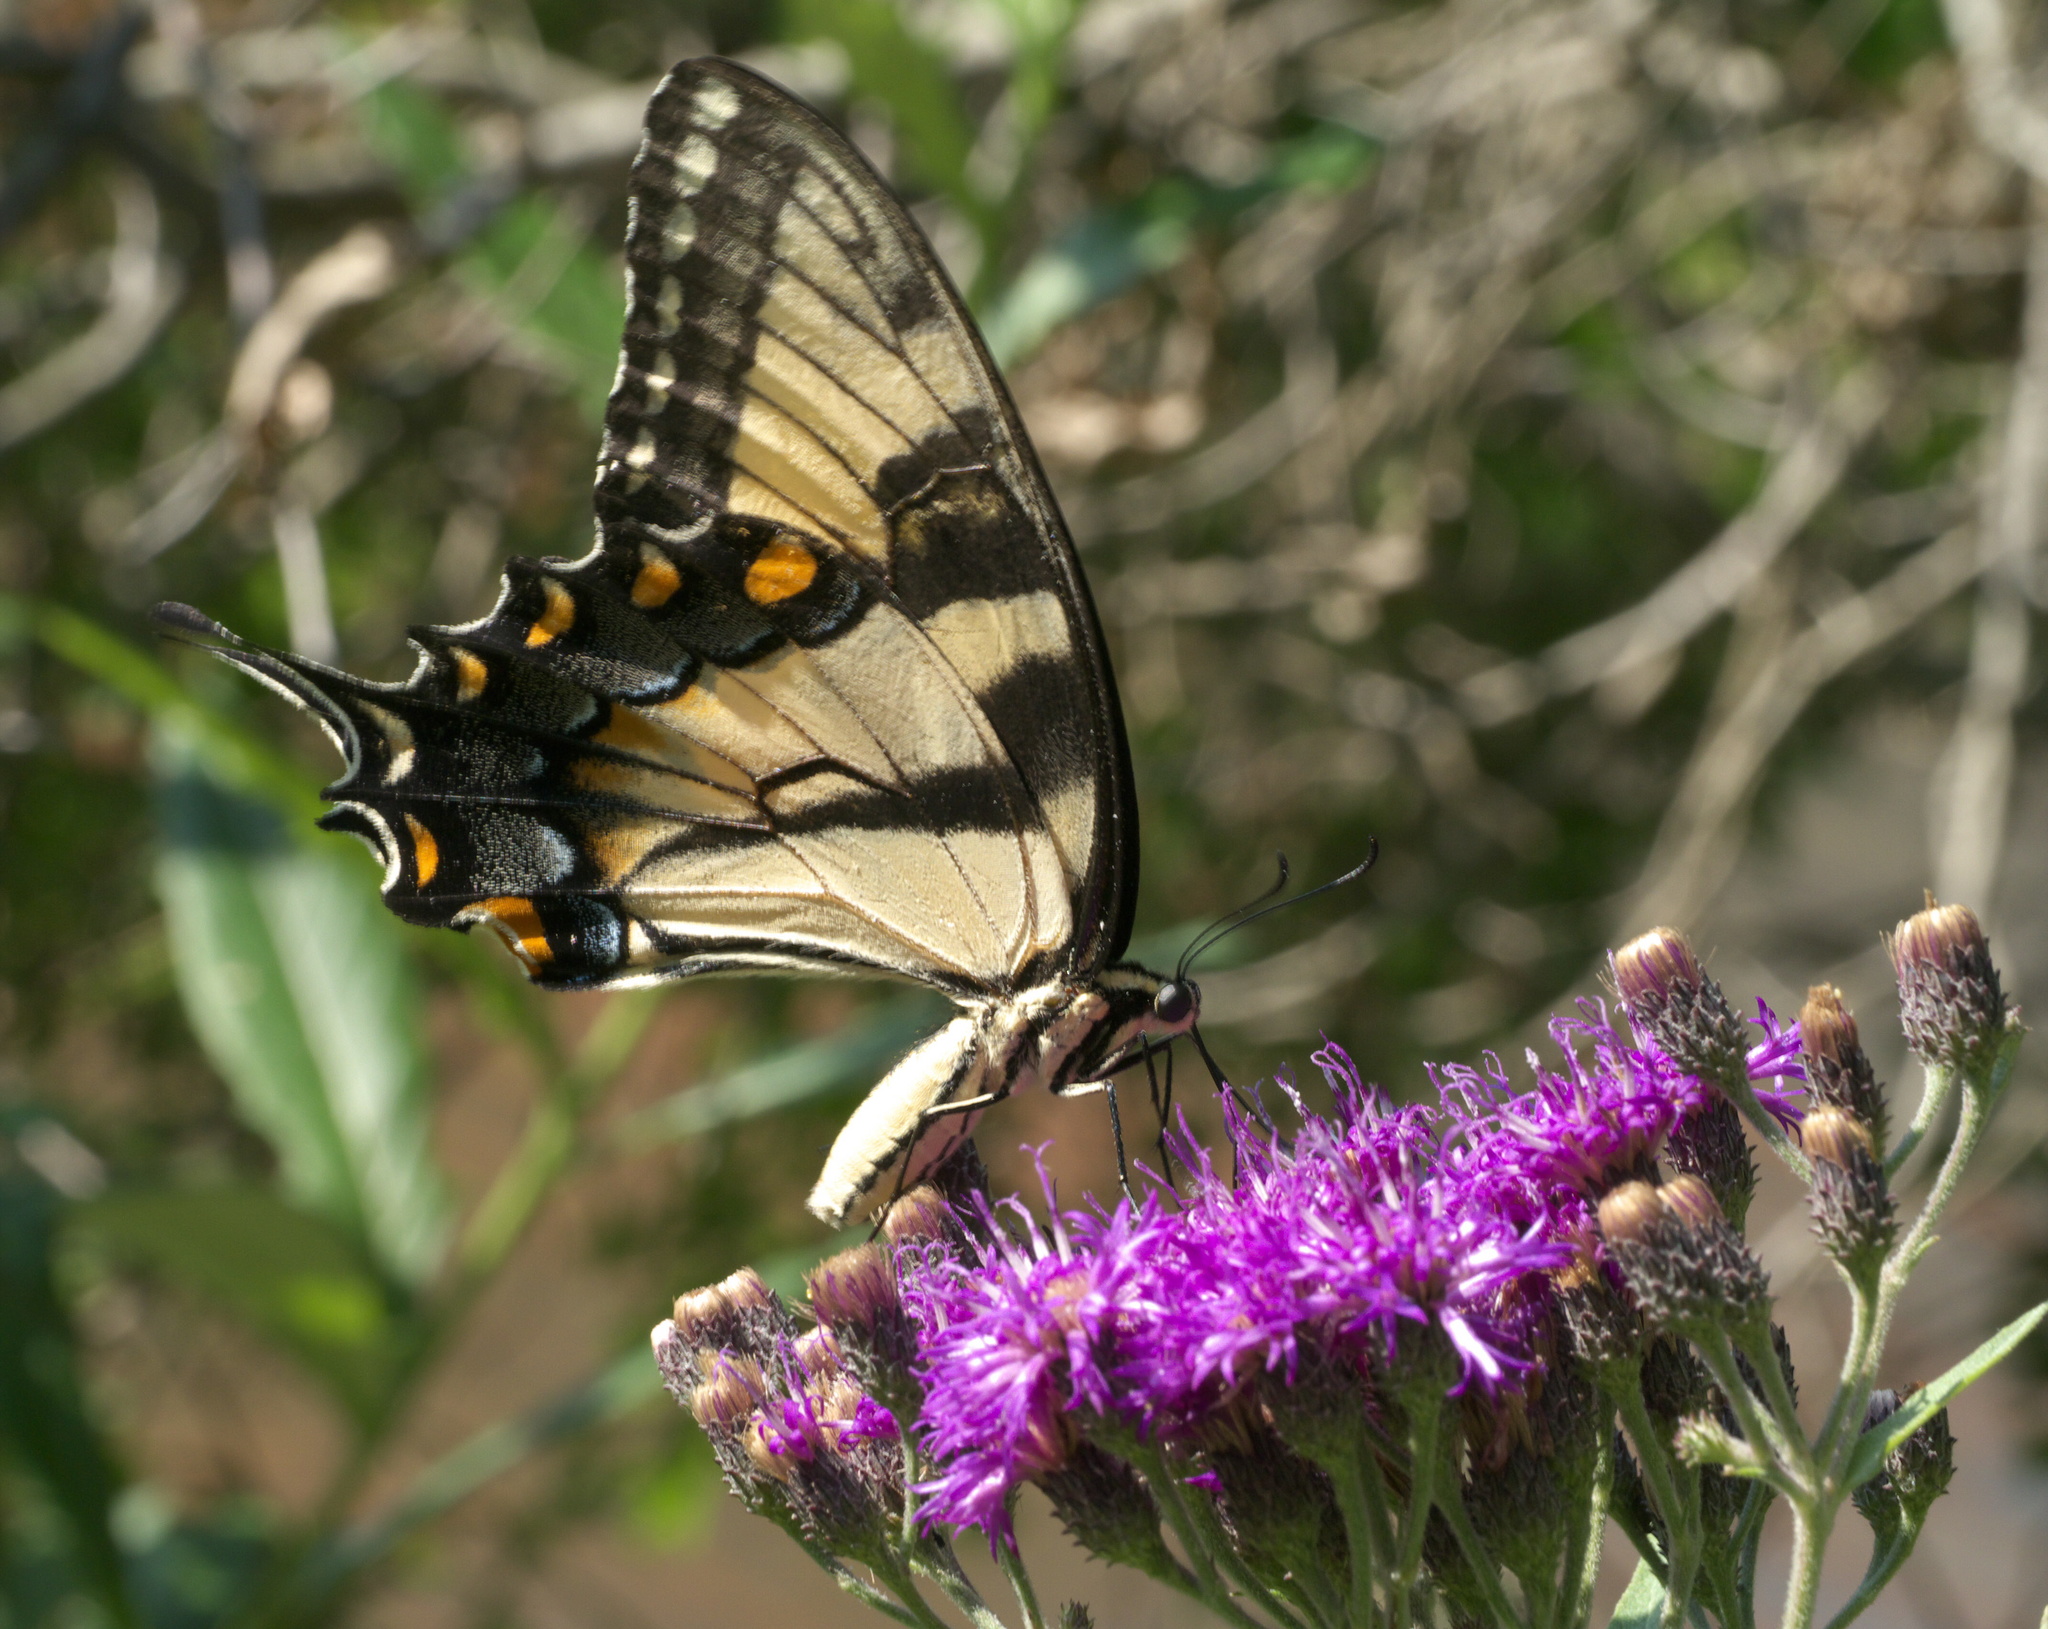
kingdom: Animalia
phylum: Arthropoda
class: Insecta
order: Lepidoptera
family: Papilionidae
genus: Papilio
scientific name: Papilio glaucus
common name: Tiger swallowtail
